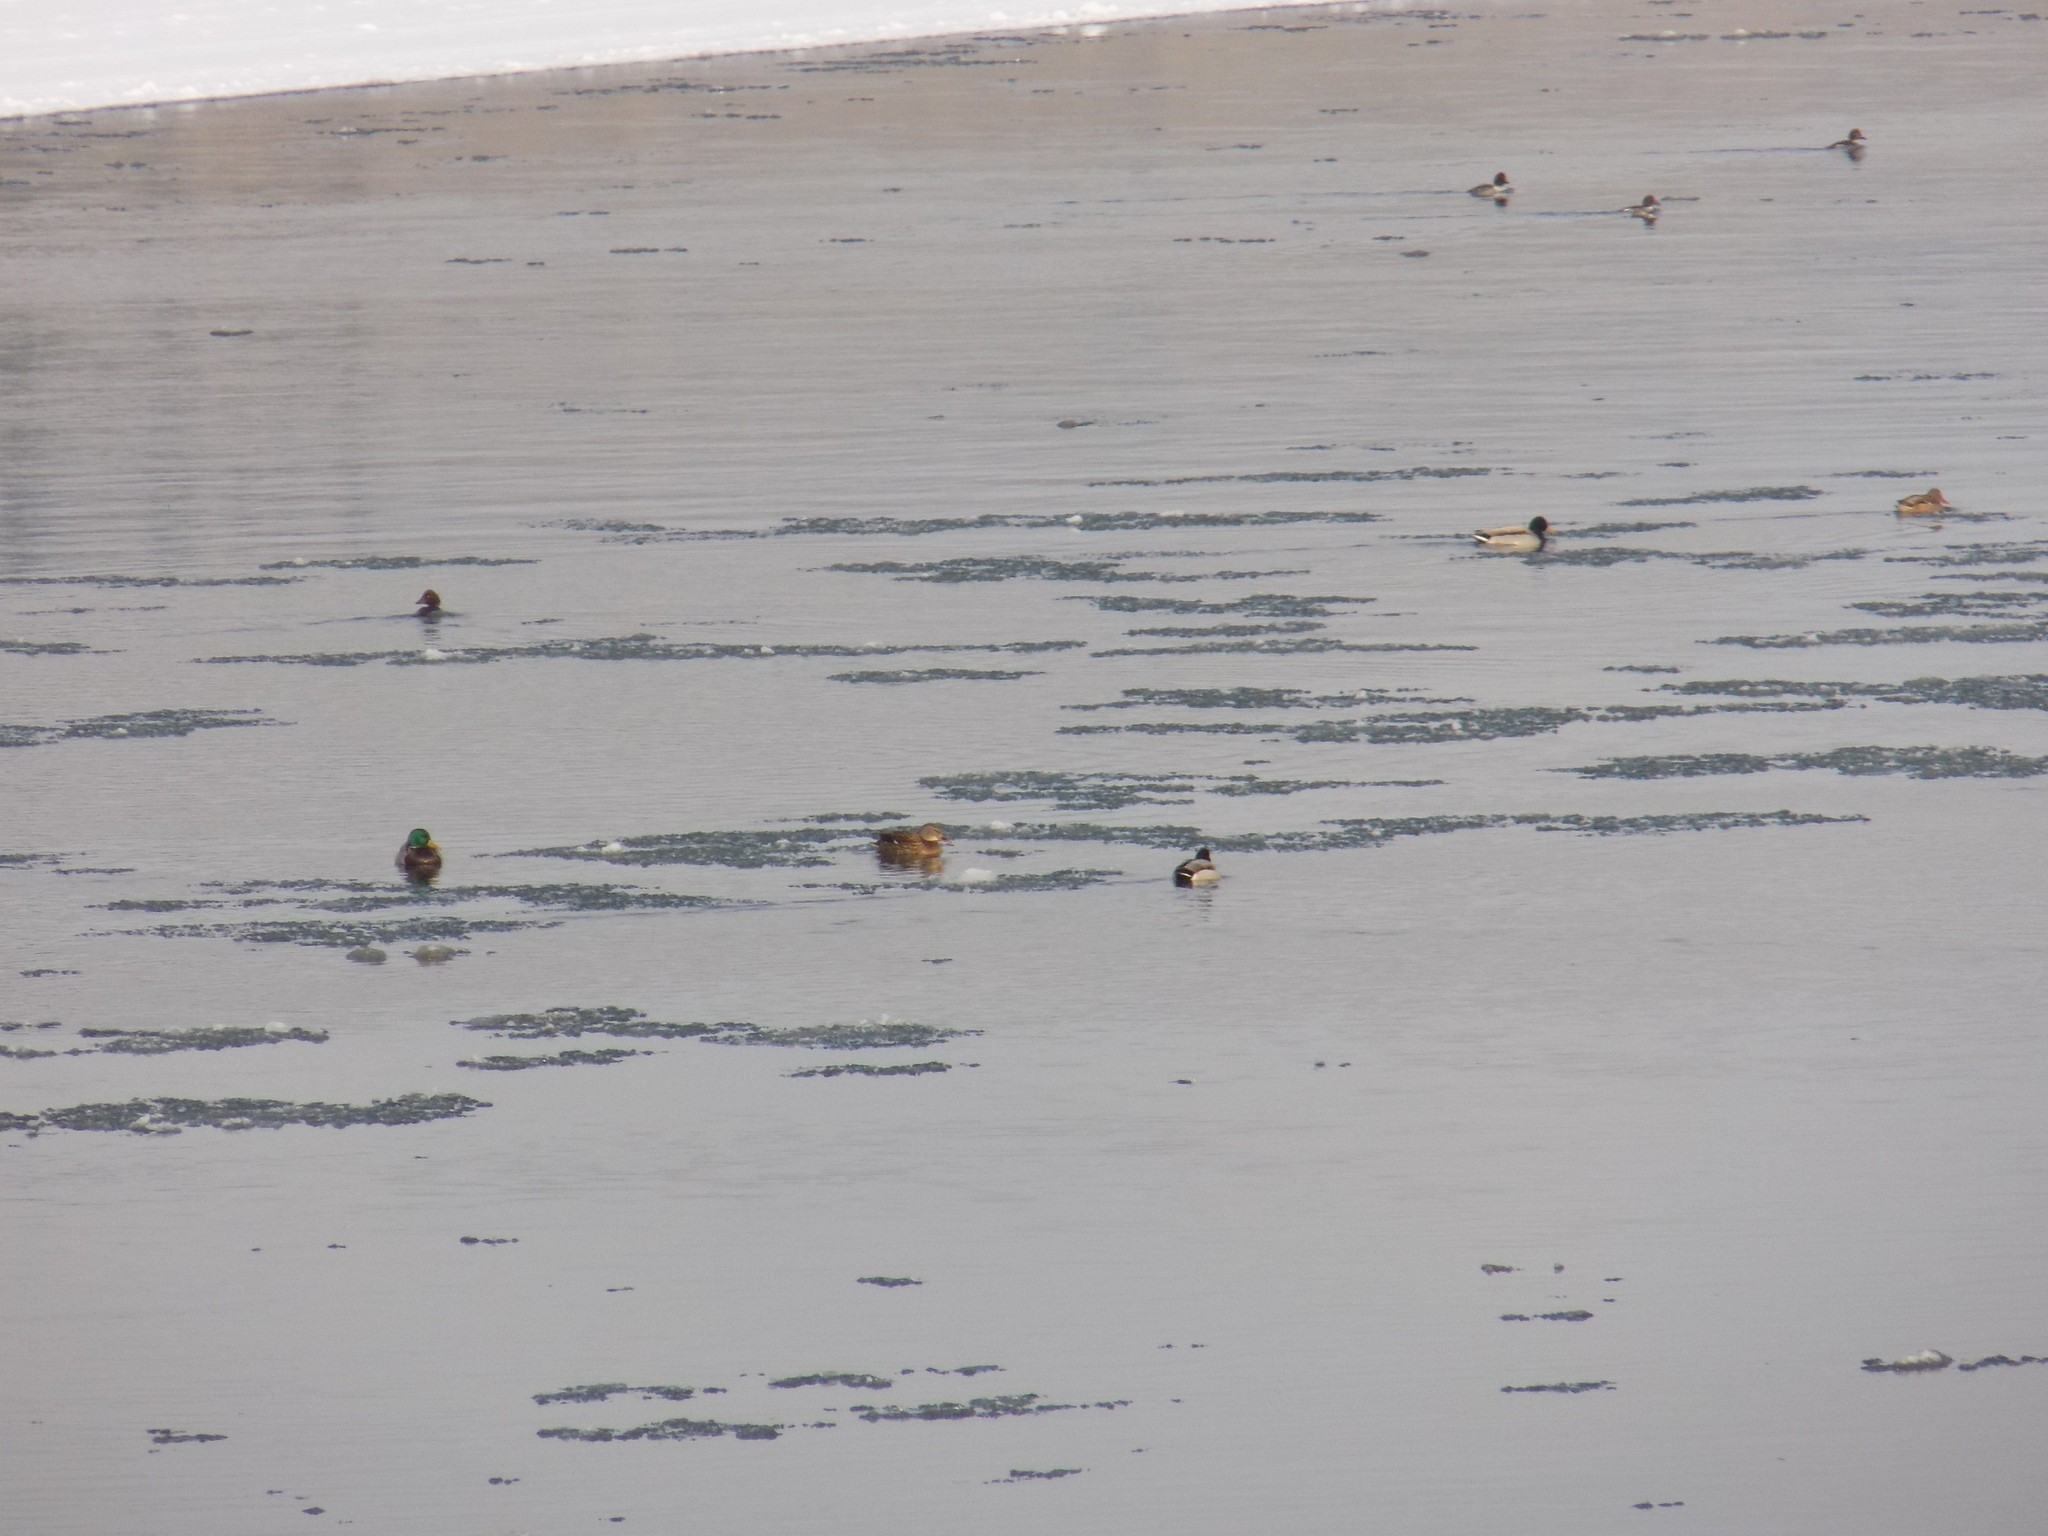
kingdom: Animalia
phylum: Chordata
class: Aves
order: Anseriformes
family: Anatidae
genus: Bucephala
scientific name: Bucephala clangula
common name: Common goldeneye
